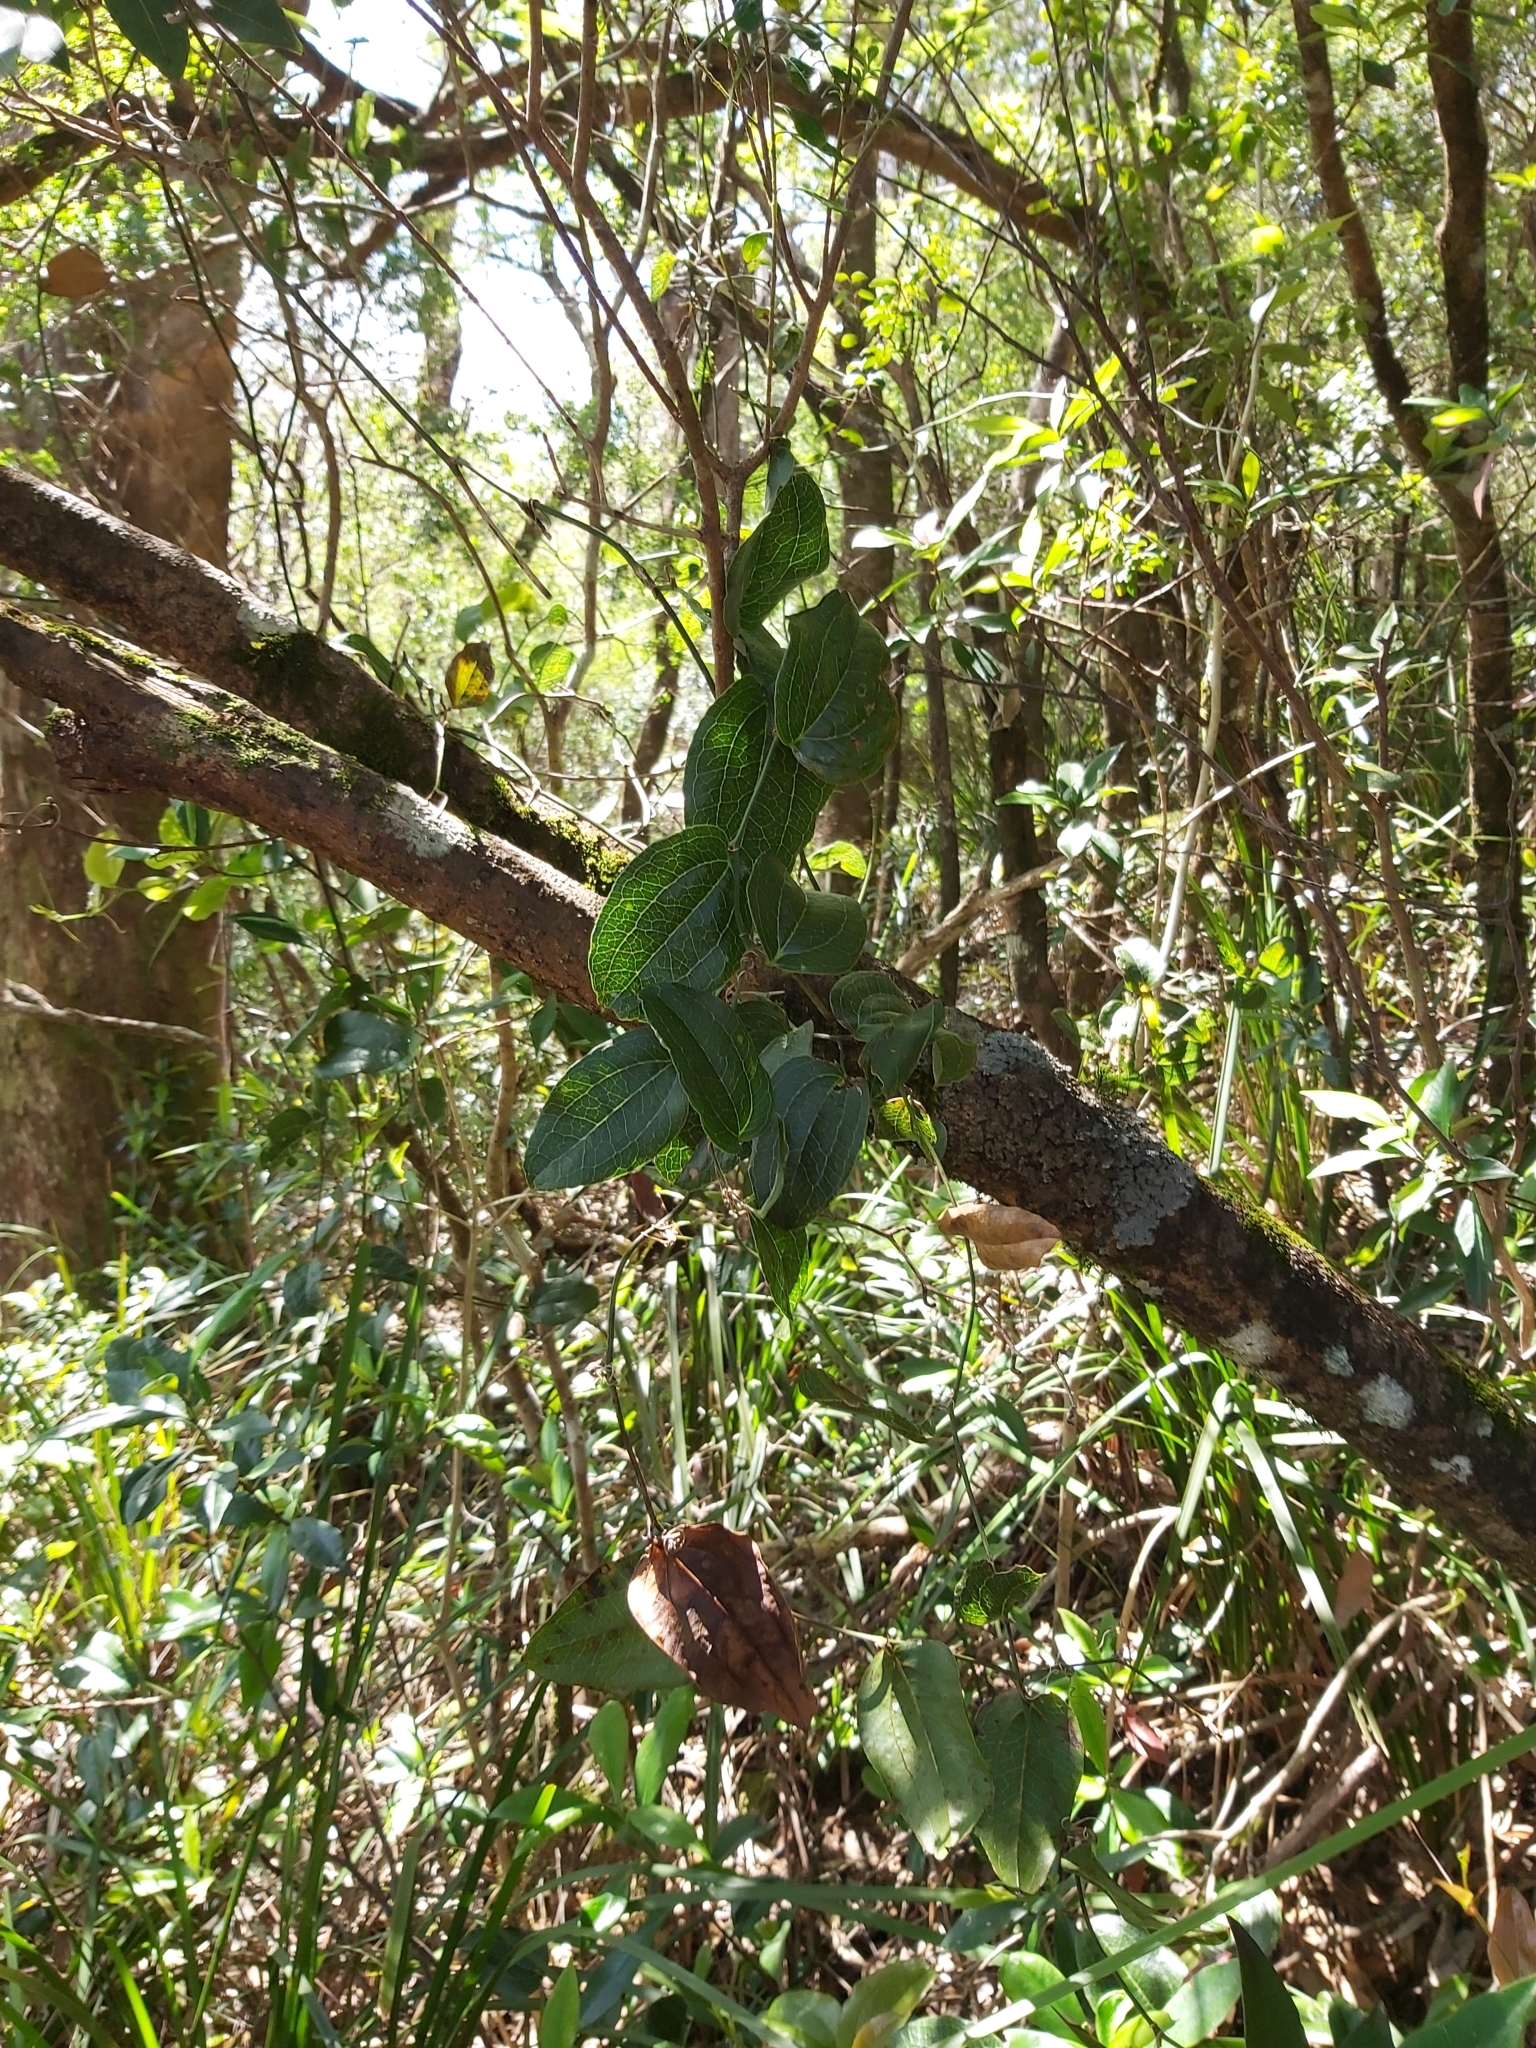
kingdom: Plantae
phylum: Tracheophyta
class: Liliopsida
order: Liliales
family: Smilacaceae
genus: Smilax
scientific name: Smilax australis
